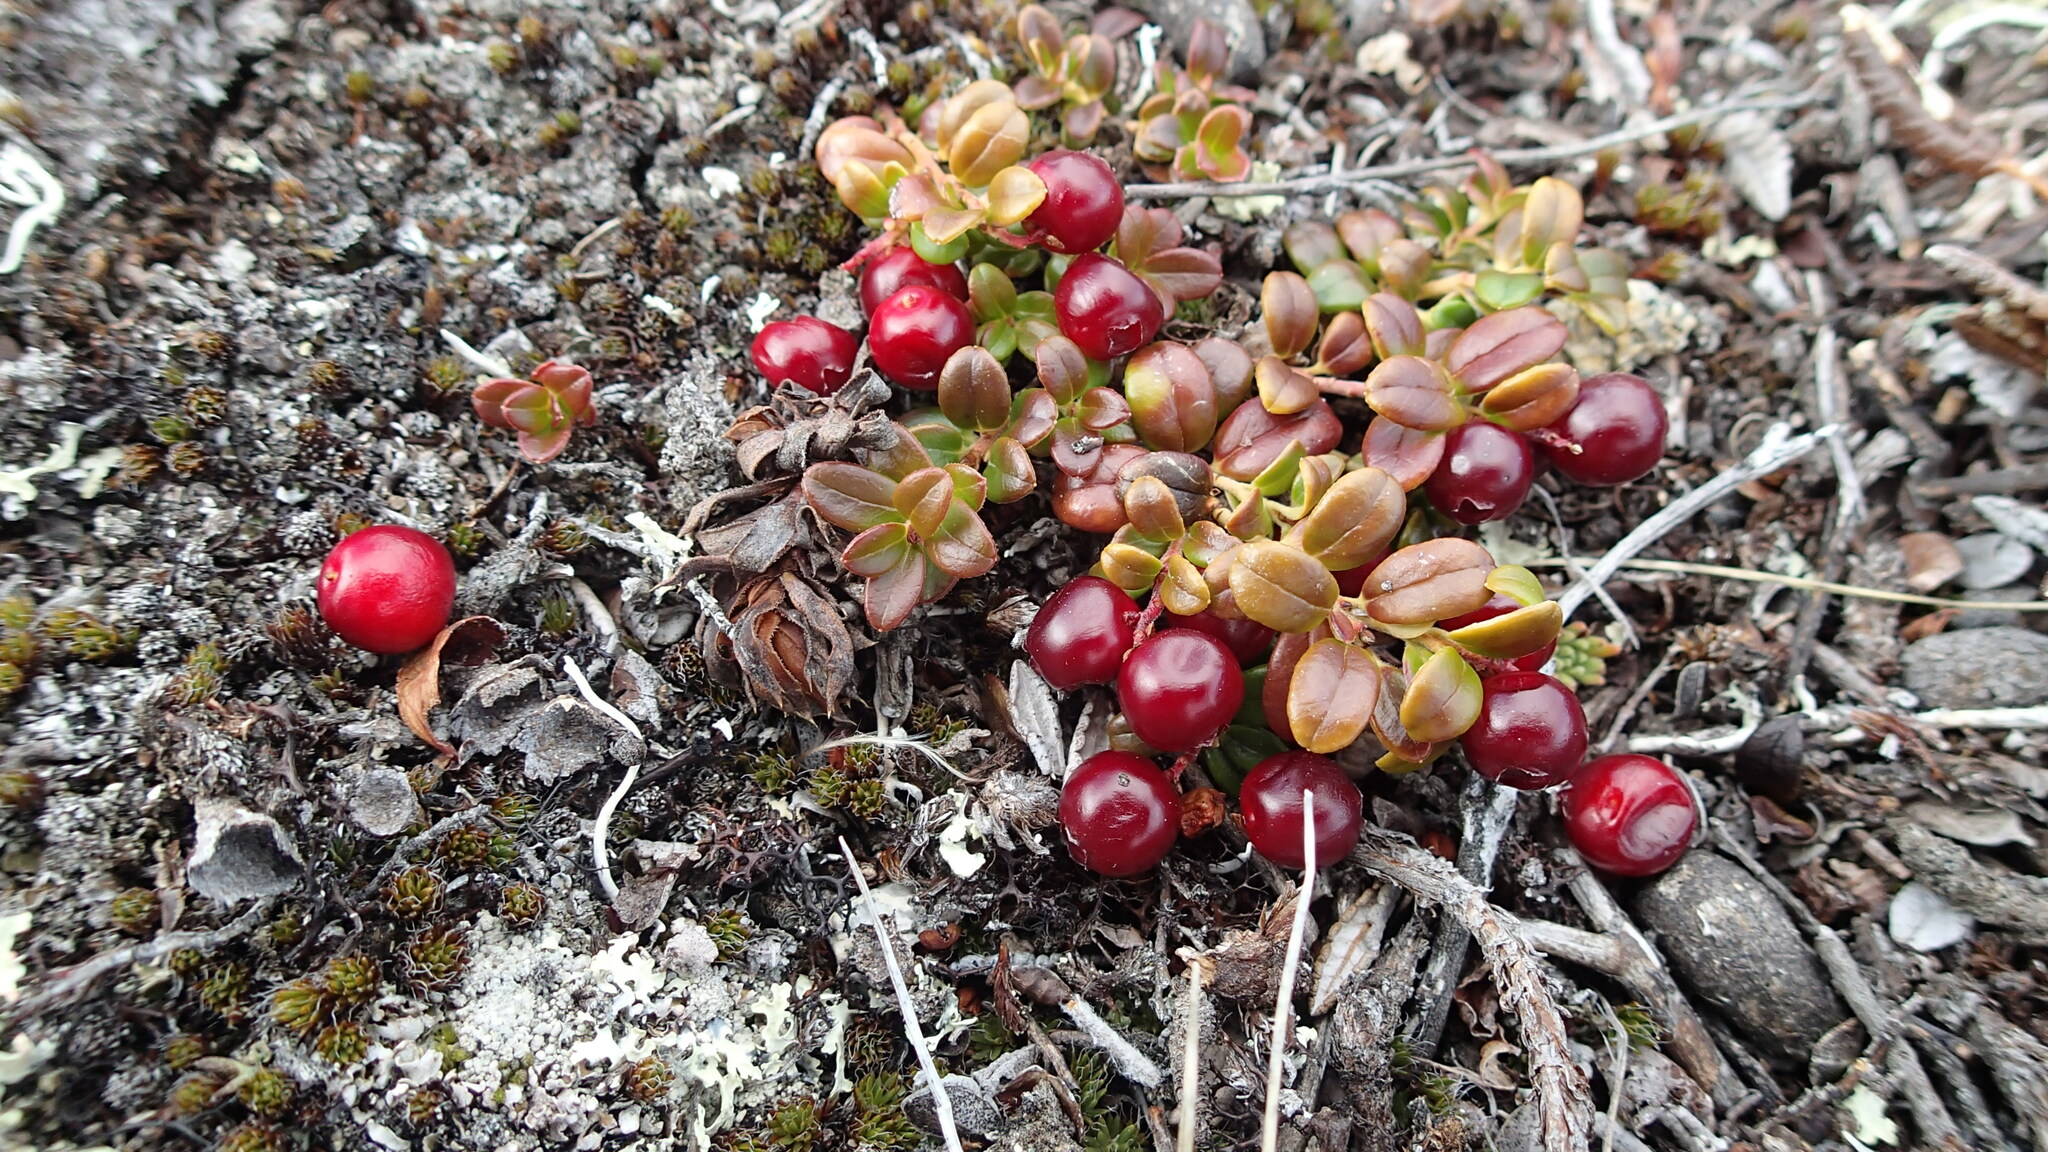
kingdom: Plantae
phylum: Tracheophyta
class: Magnoliopsida
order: Ericales
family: Ericaceae
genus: Vaccinium
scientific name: Vaccinium vitis-idaea
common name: Cowberry
